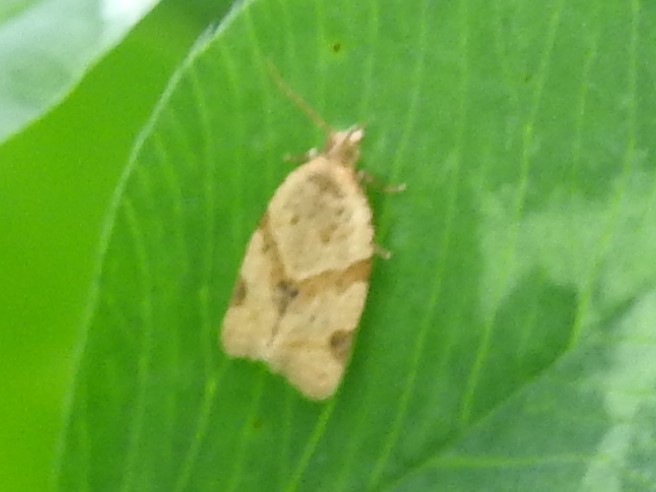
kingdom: Animalia
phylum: Arthropoda
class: Insecta
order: Lepidoptera
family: Tortricidae
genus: Clepsis
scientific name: Clepsis peritana
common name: Garden tortrix
